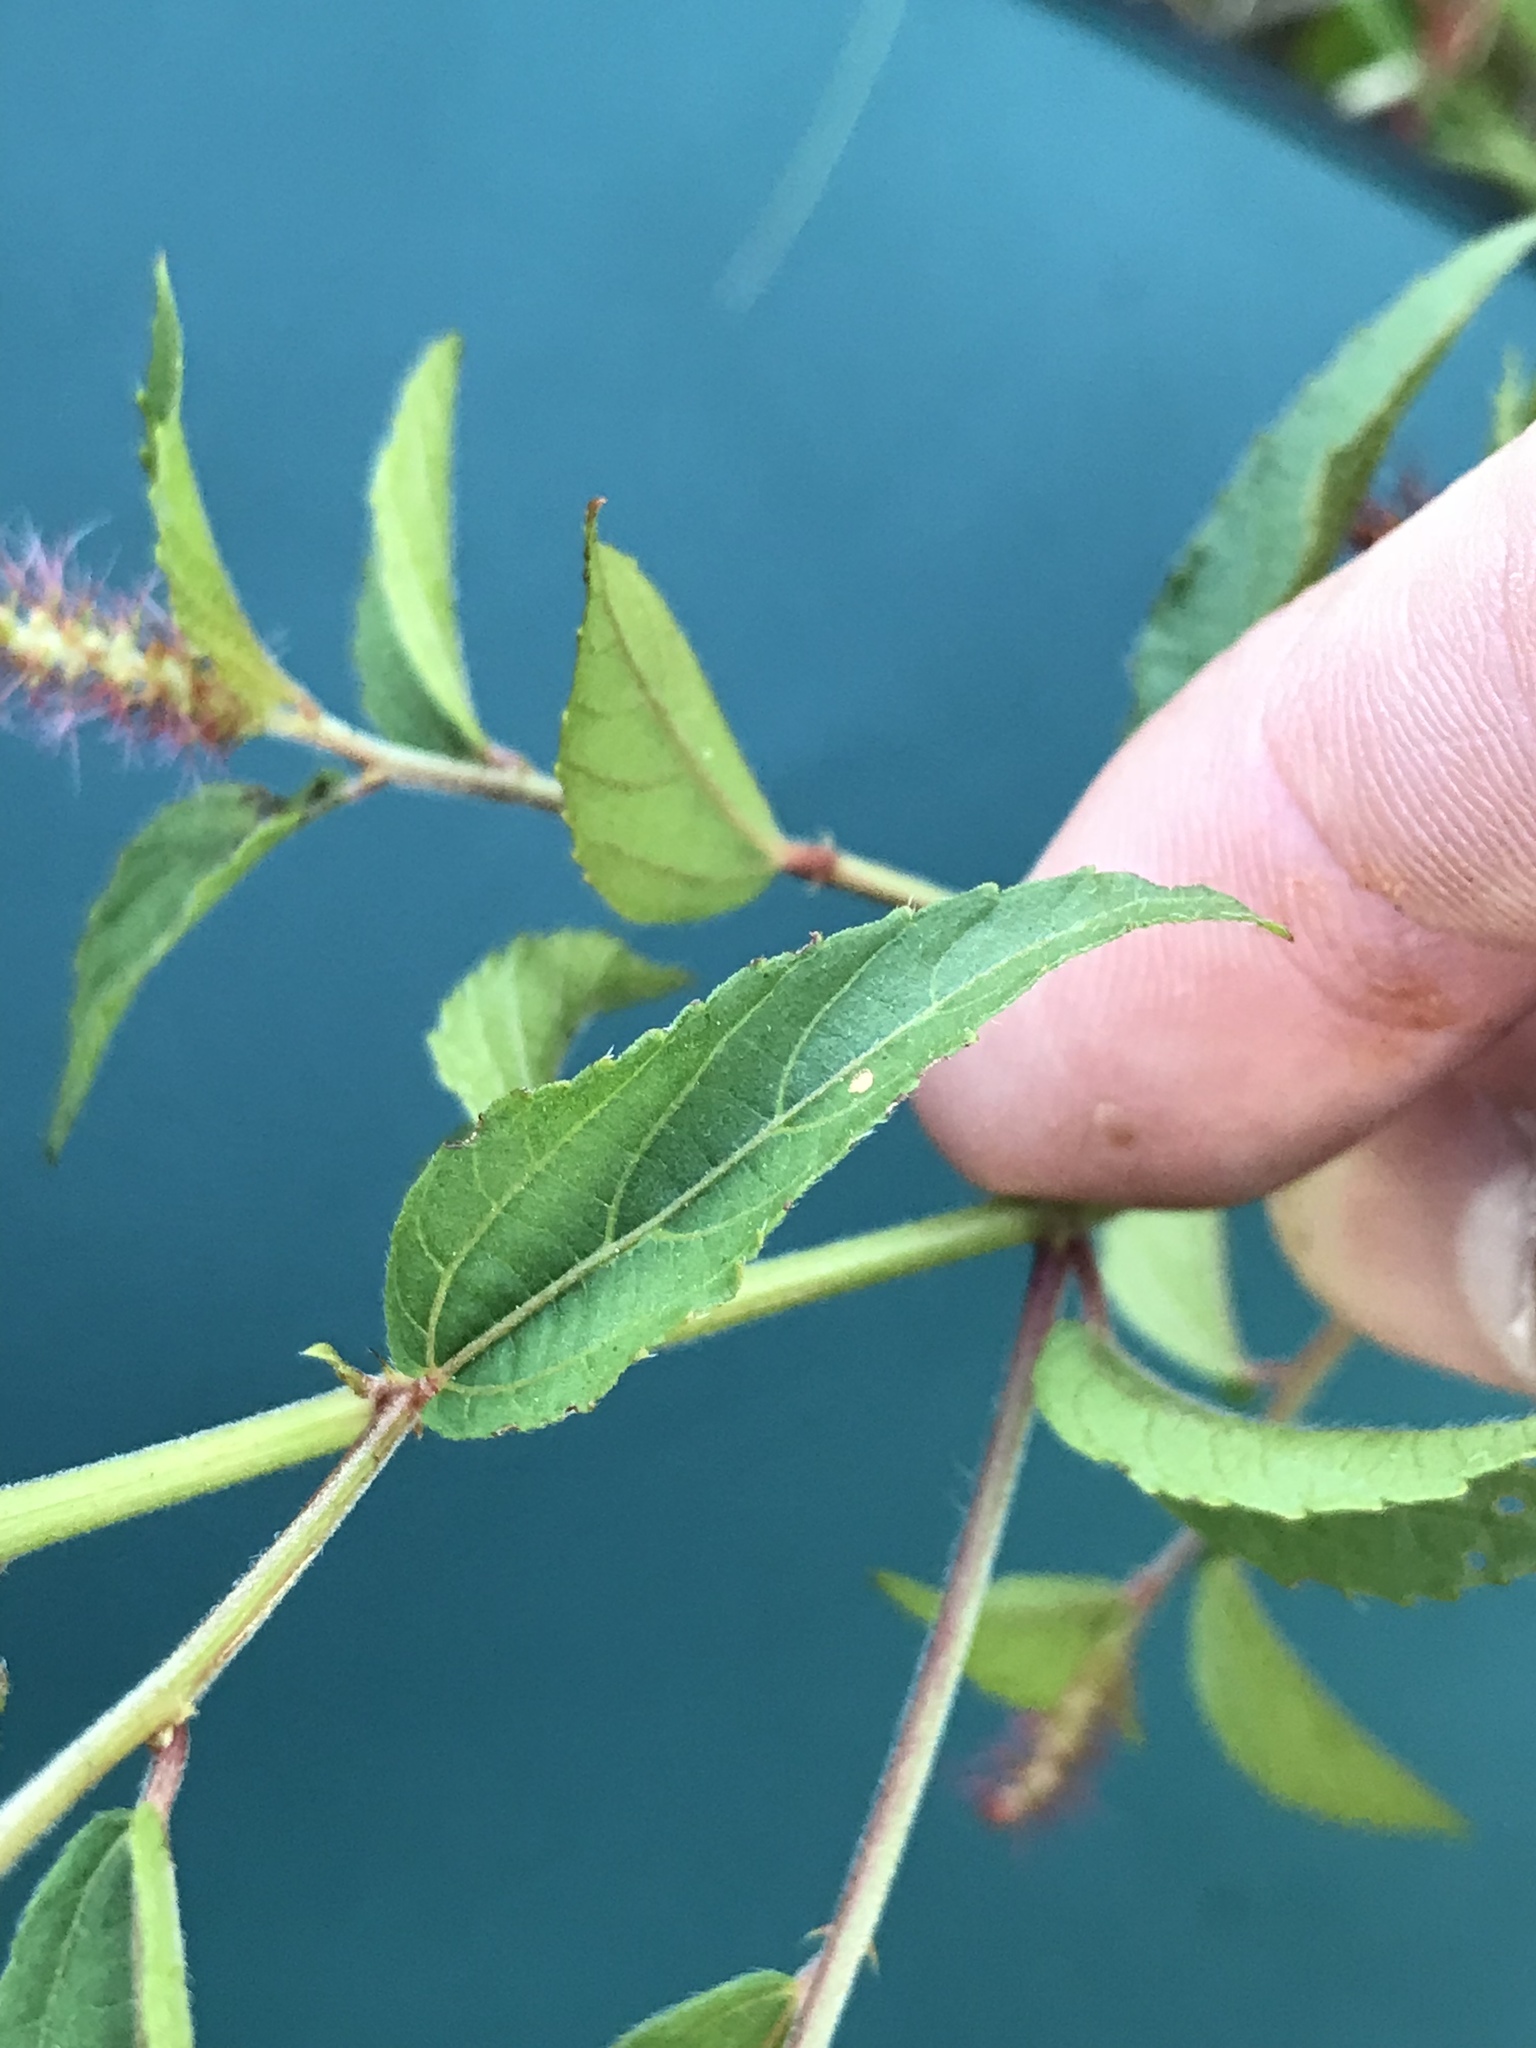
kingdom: Plantae
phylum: Tracheophyta
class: Magnoliopsida
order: Malpighiales
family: Euphorbiaceae
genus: Acalypha
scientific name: Acalypha phleoides
